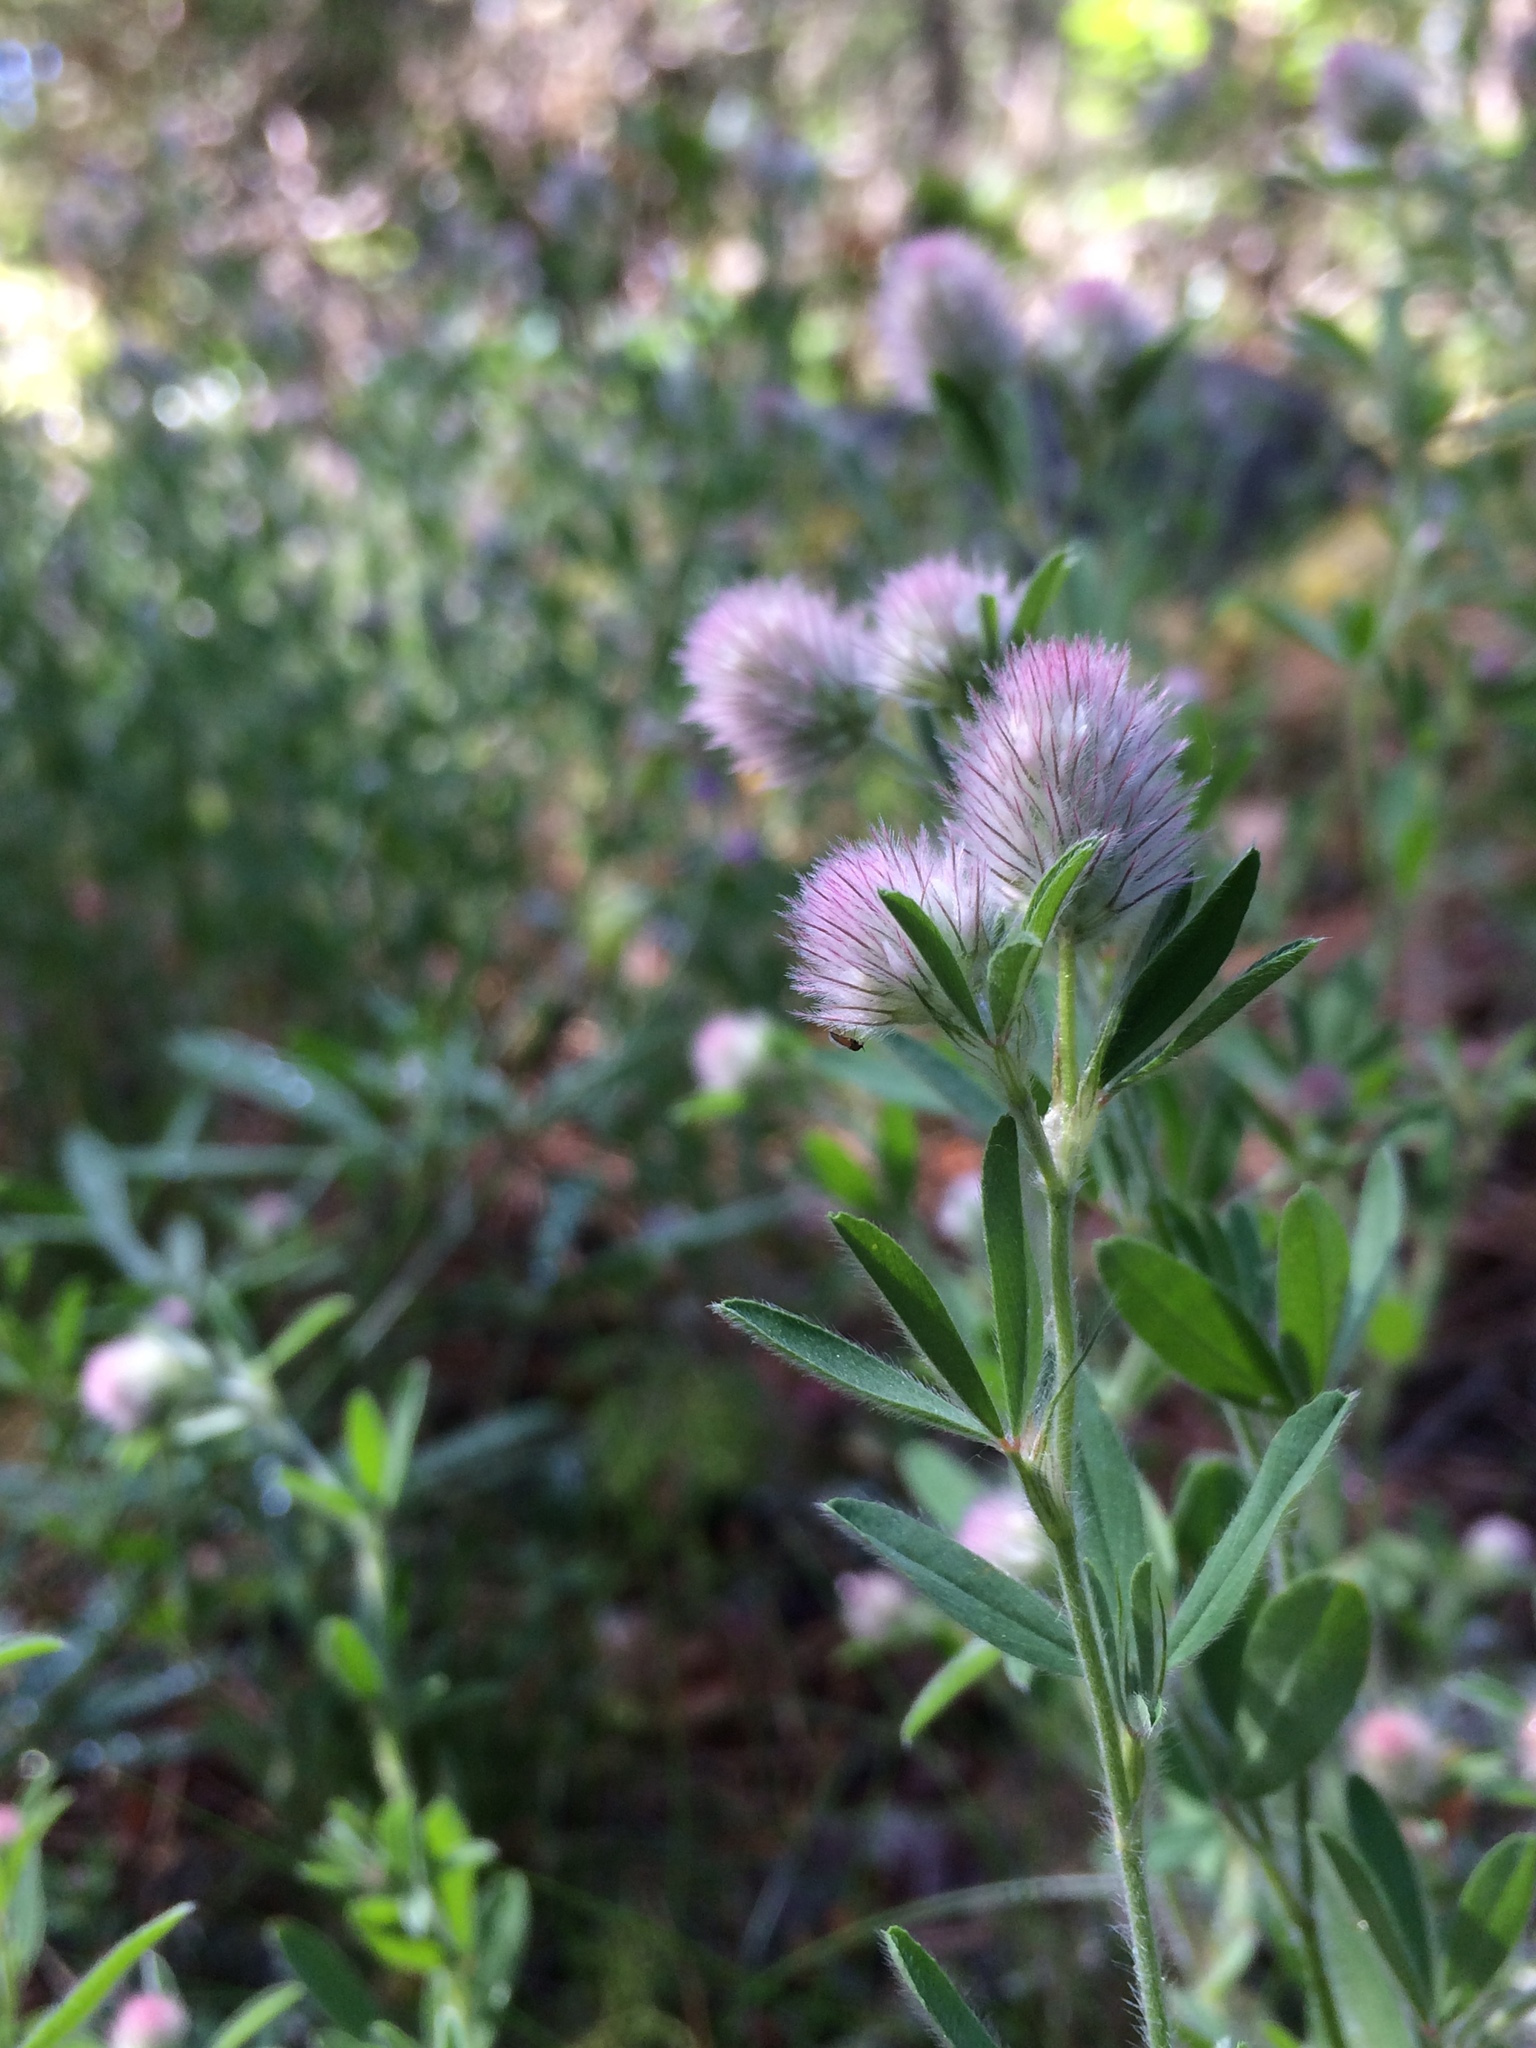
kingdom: Plantae
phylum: Tracheophyta
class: Magnoliopsida
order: Fabales
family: Fabaceae
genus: Trifolium
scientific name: Trifolium arvense
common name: Hare's-foot clover
